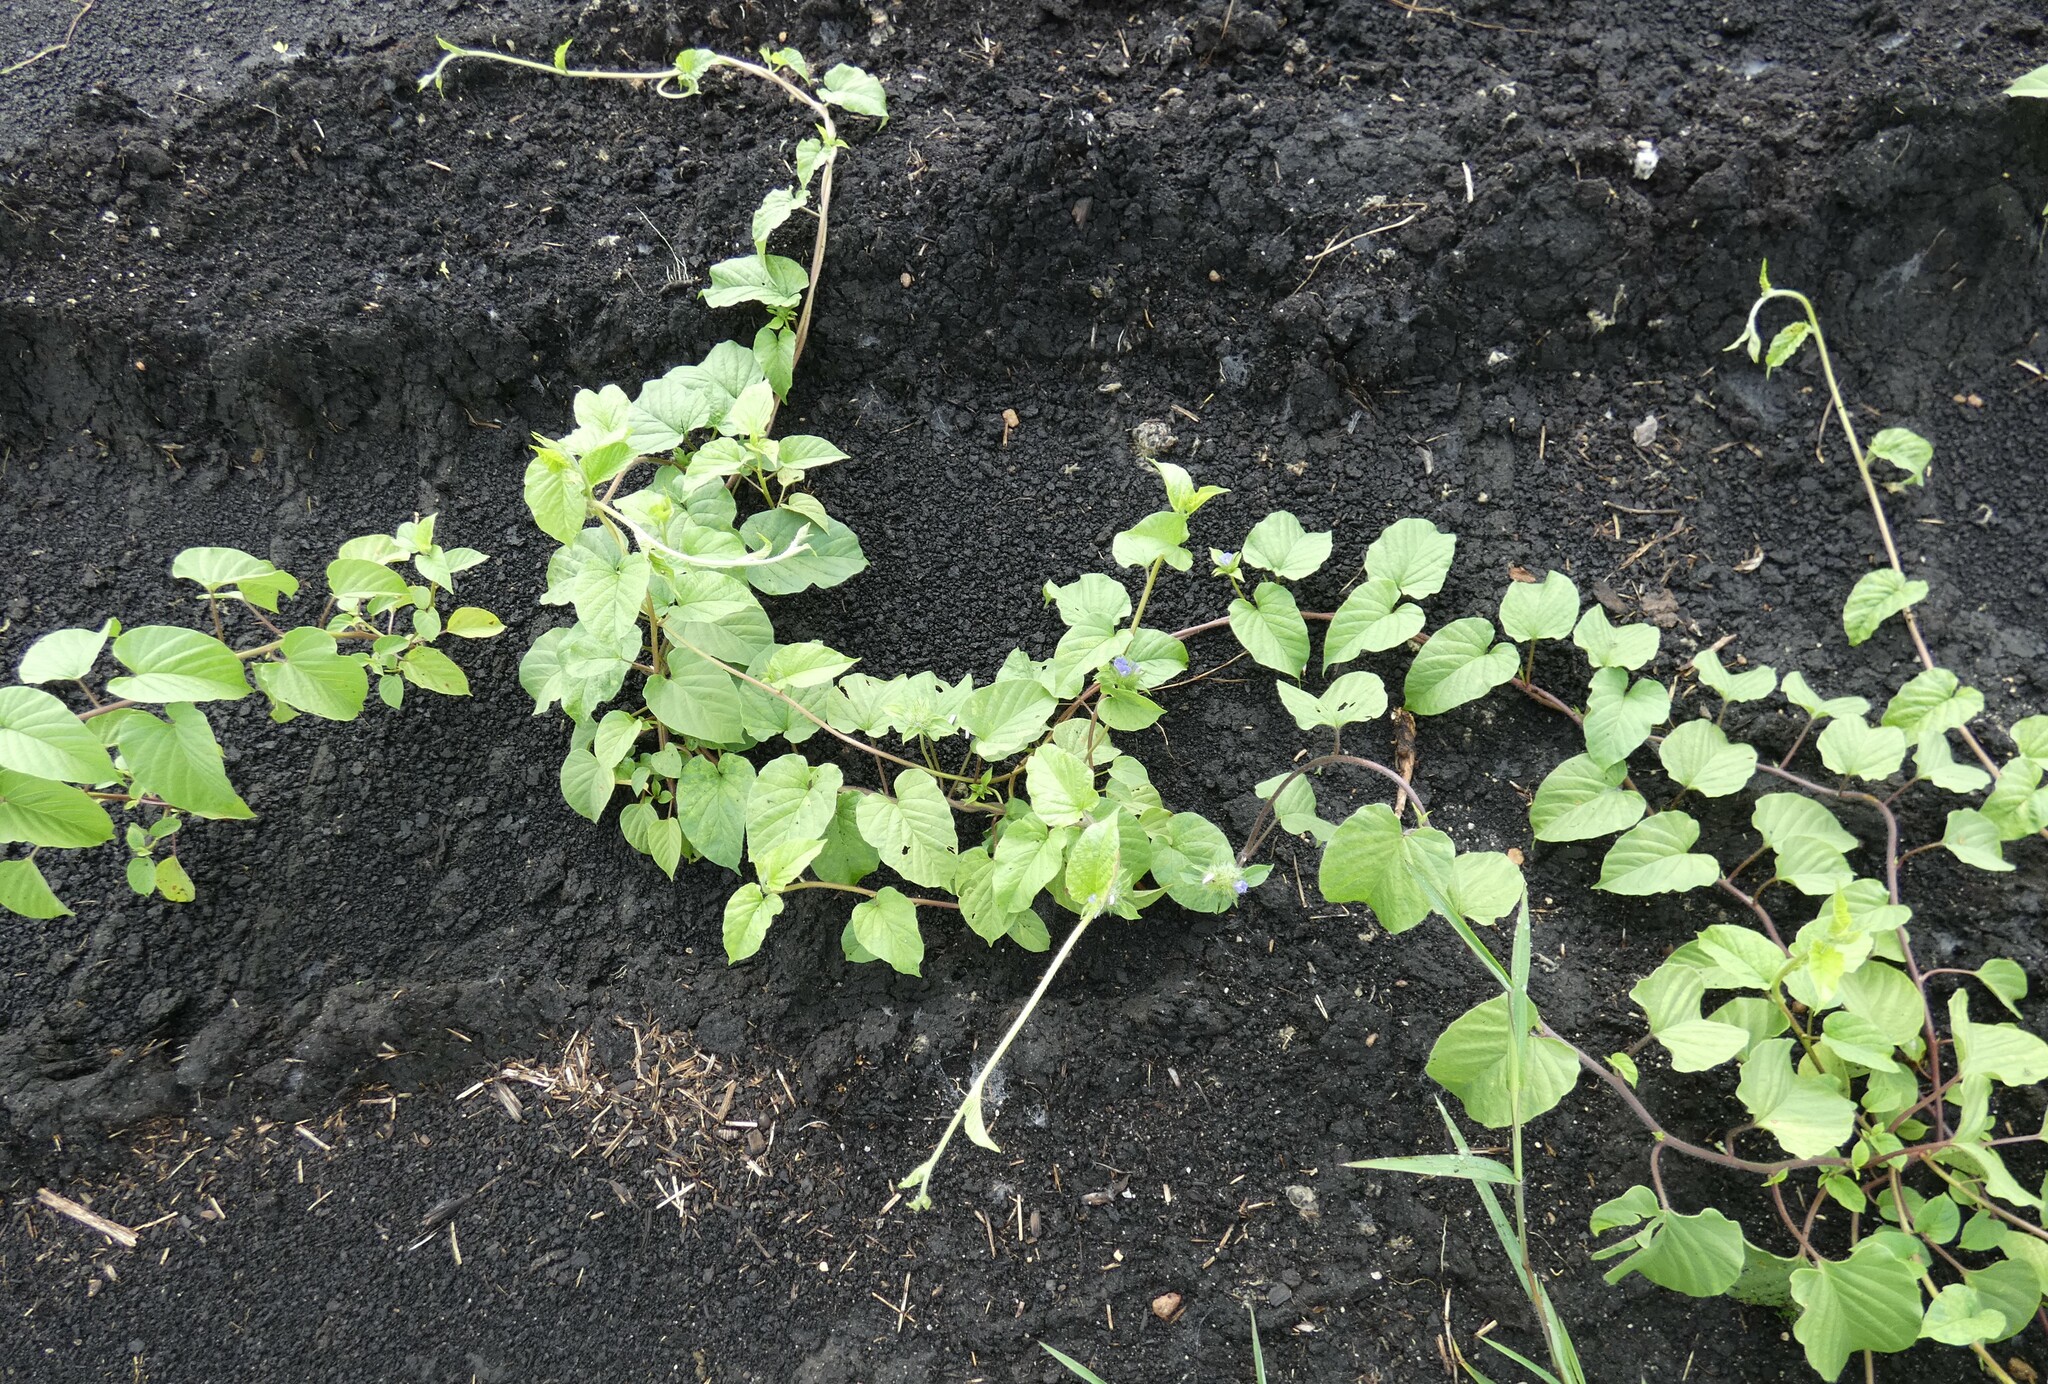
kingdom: Plantae
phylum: Tracheophyta
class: Magnoliopsida
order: Solanales
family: Convolvulaceae
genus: Jacquemontia
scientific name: Jacquemontia tamnifolia
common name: Hairy clustervine
